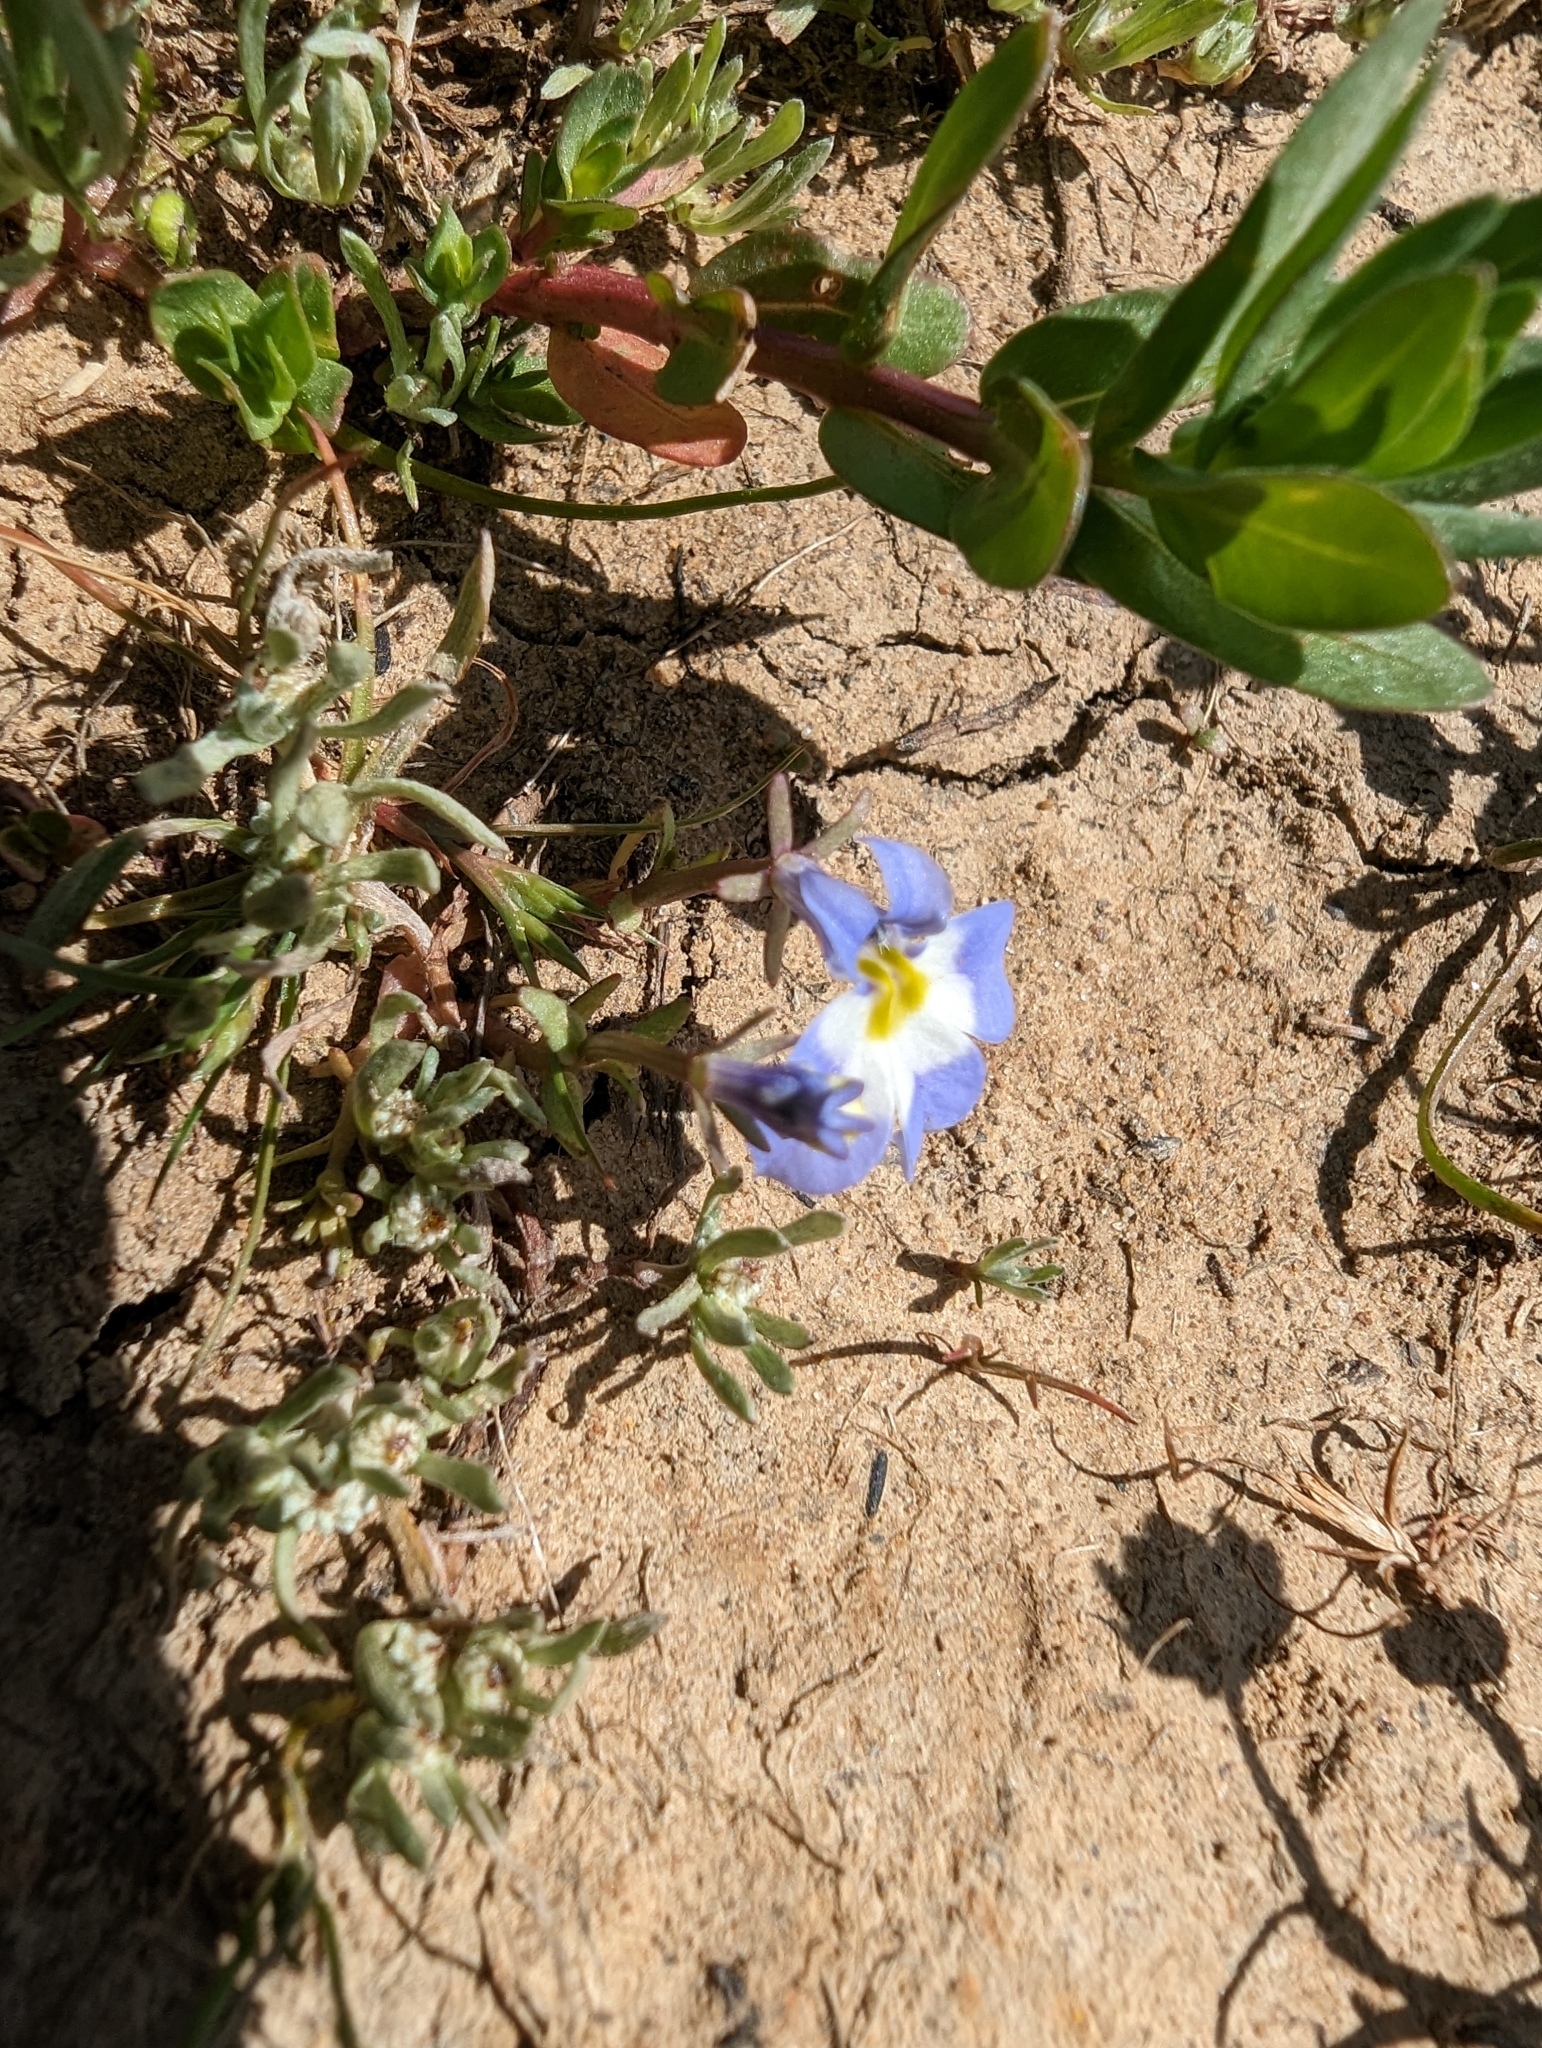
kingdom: Plantae
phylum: Tracheophyta
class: Magnoliopsida
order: Asterales
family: Campanulaceae
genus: Downingia
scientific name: Downingia bella
